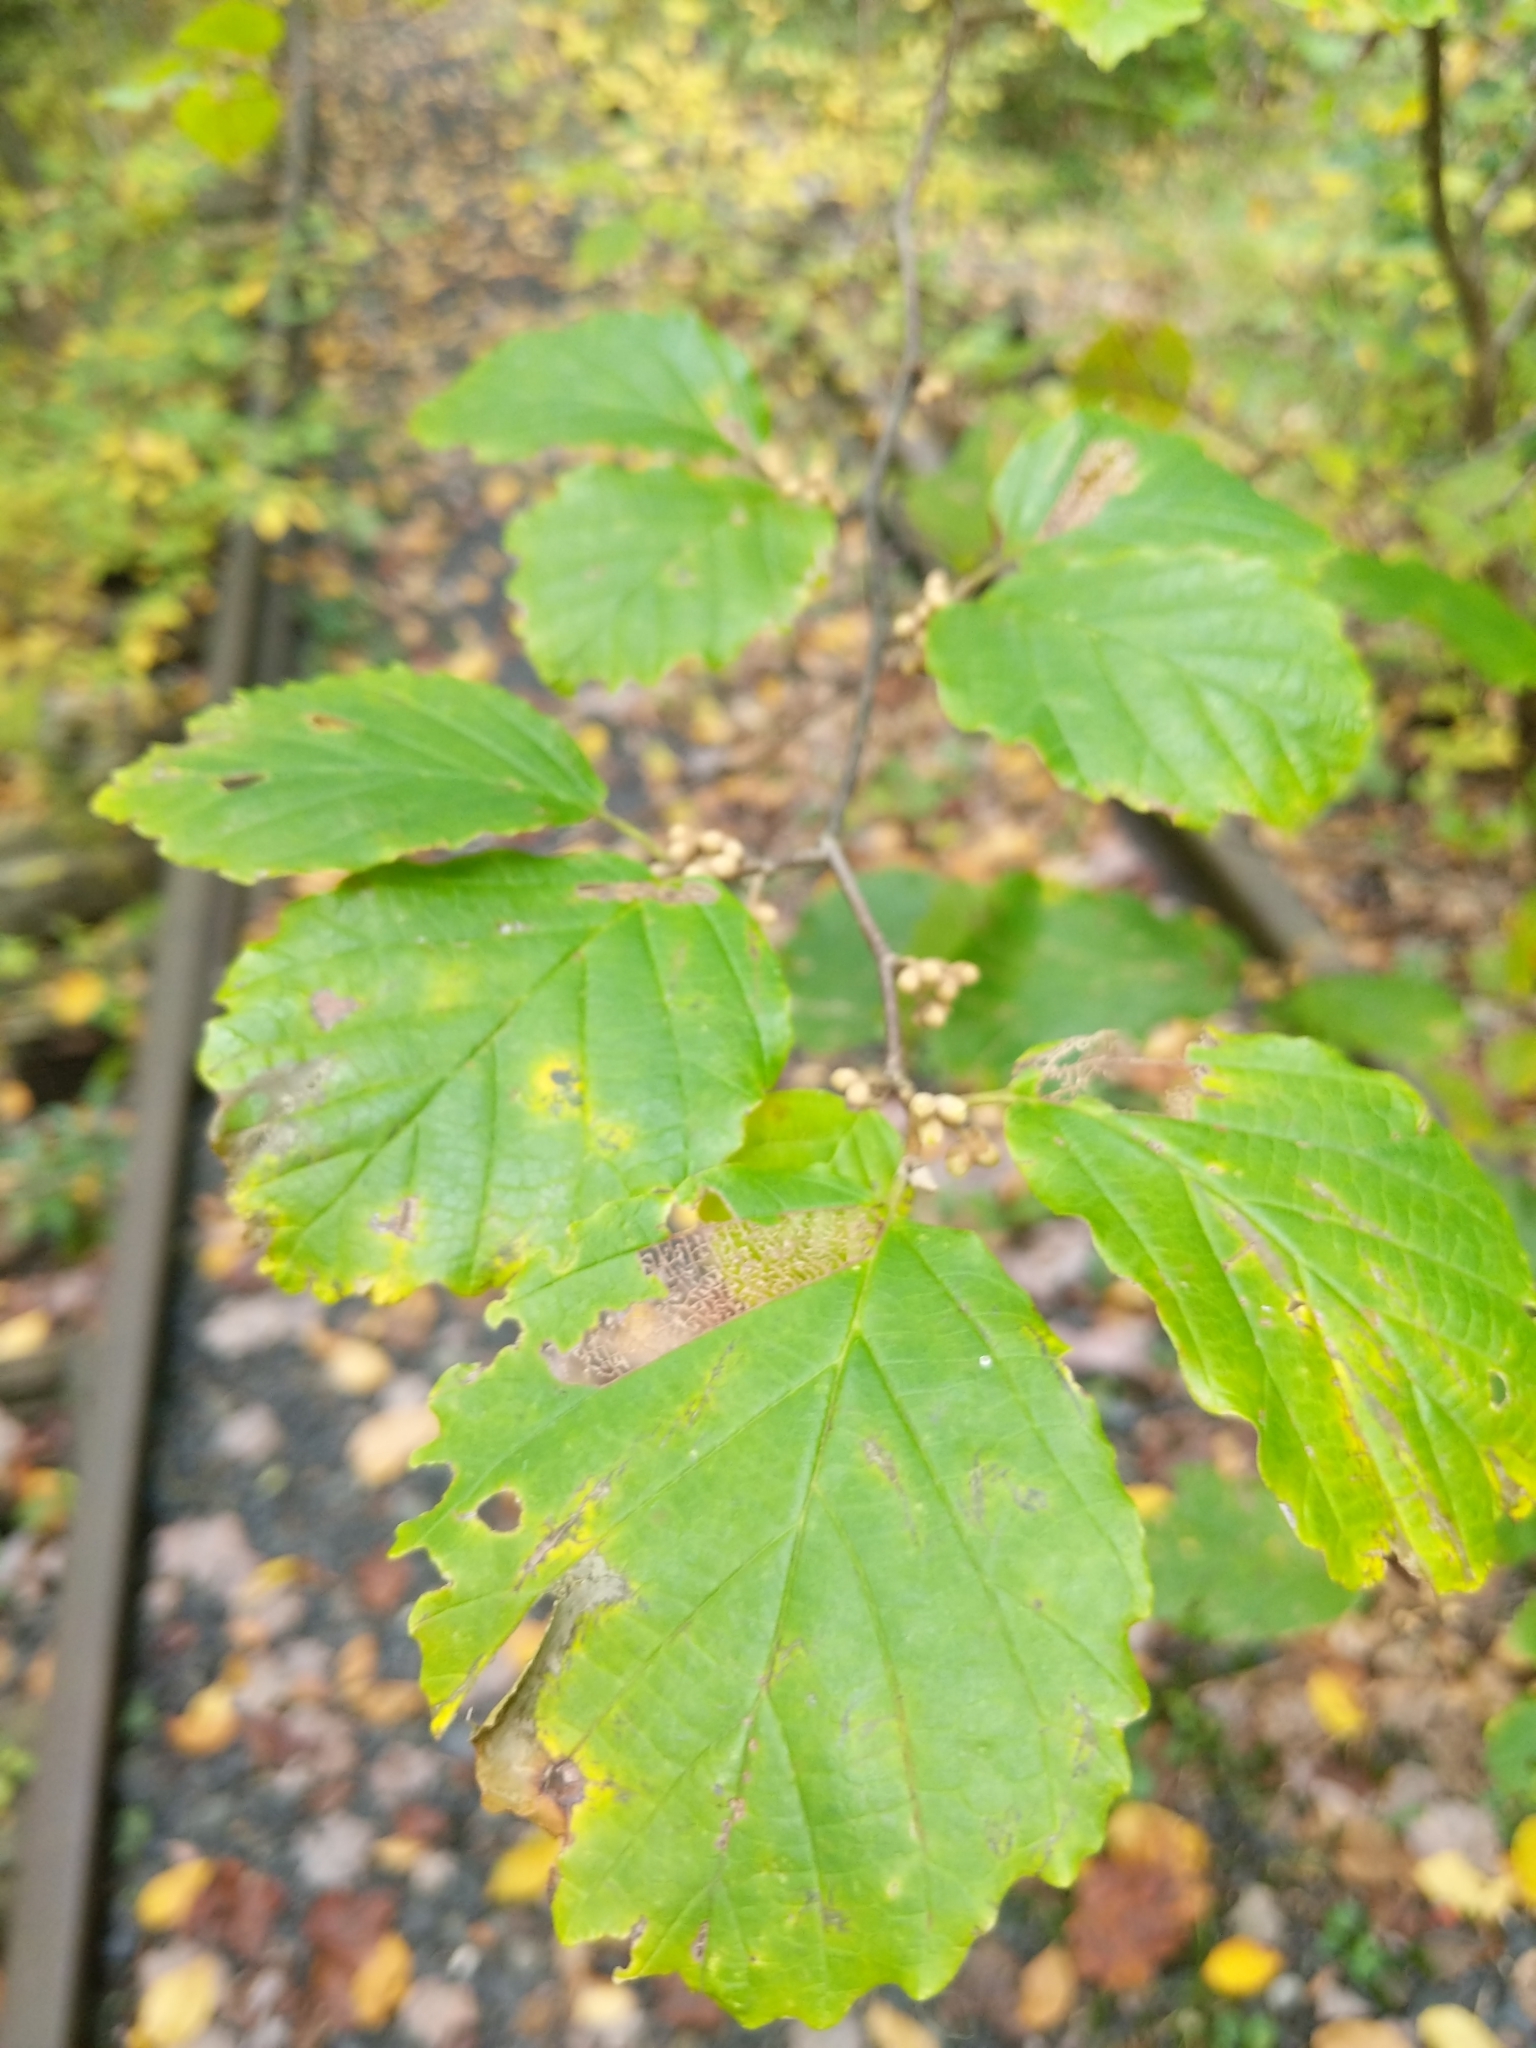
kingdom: Plantae
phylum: Tracheophyta
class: Magnoliopsida
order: Saxifragales
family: Hamamelidaceae
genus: Hamamelis
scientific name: Hamamelis virginiana
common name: Witch-hazel
